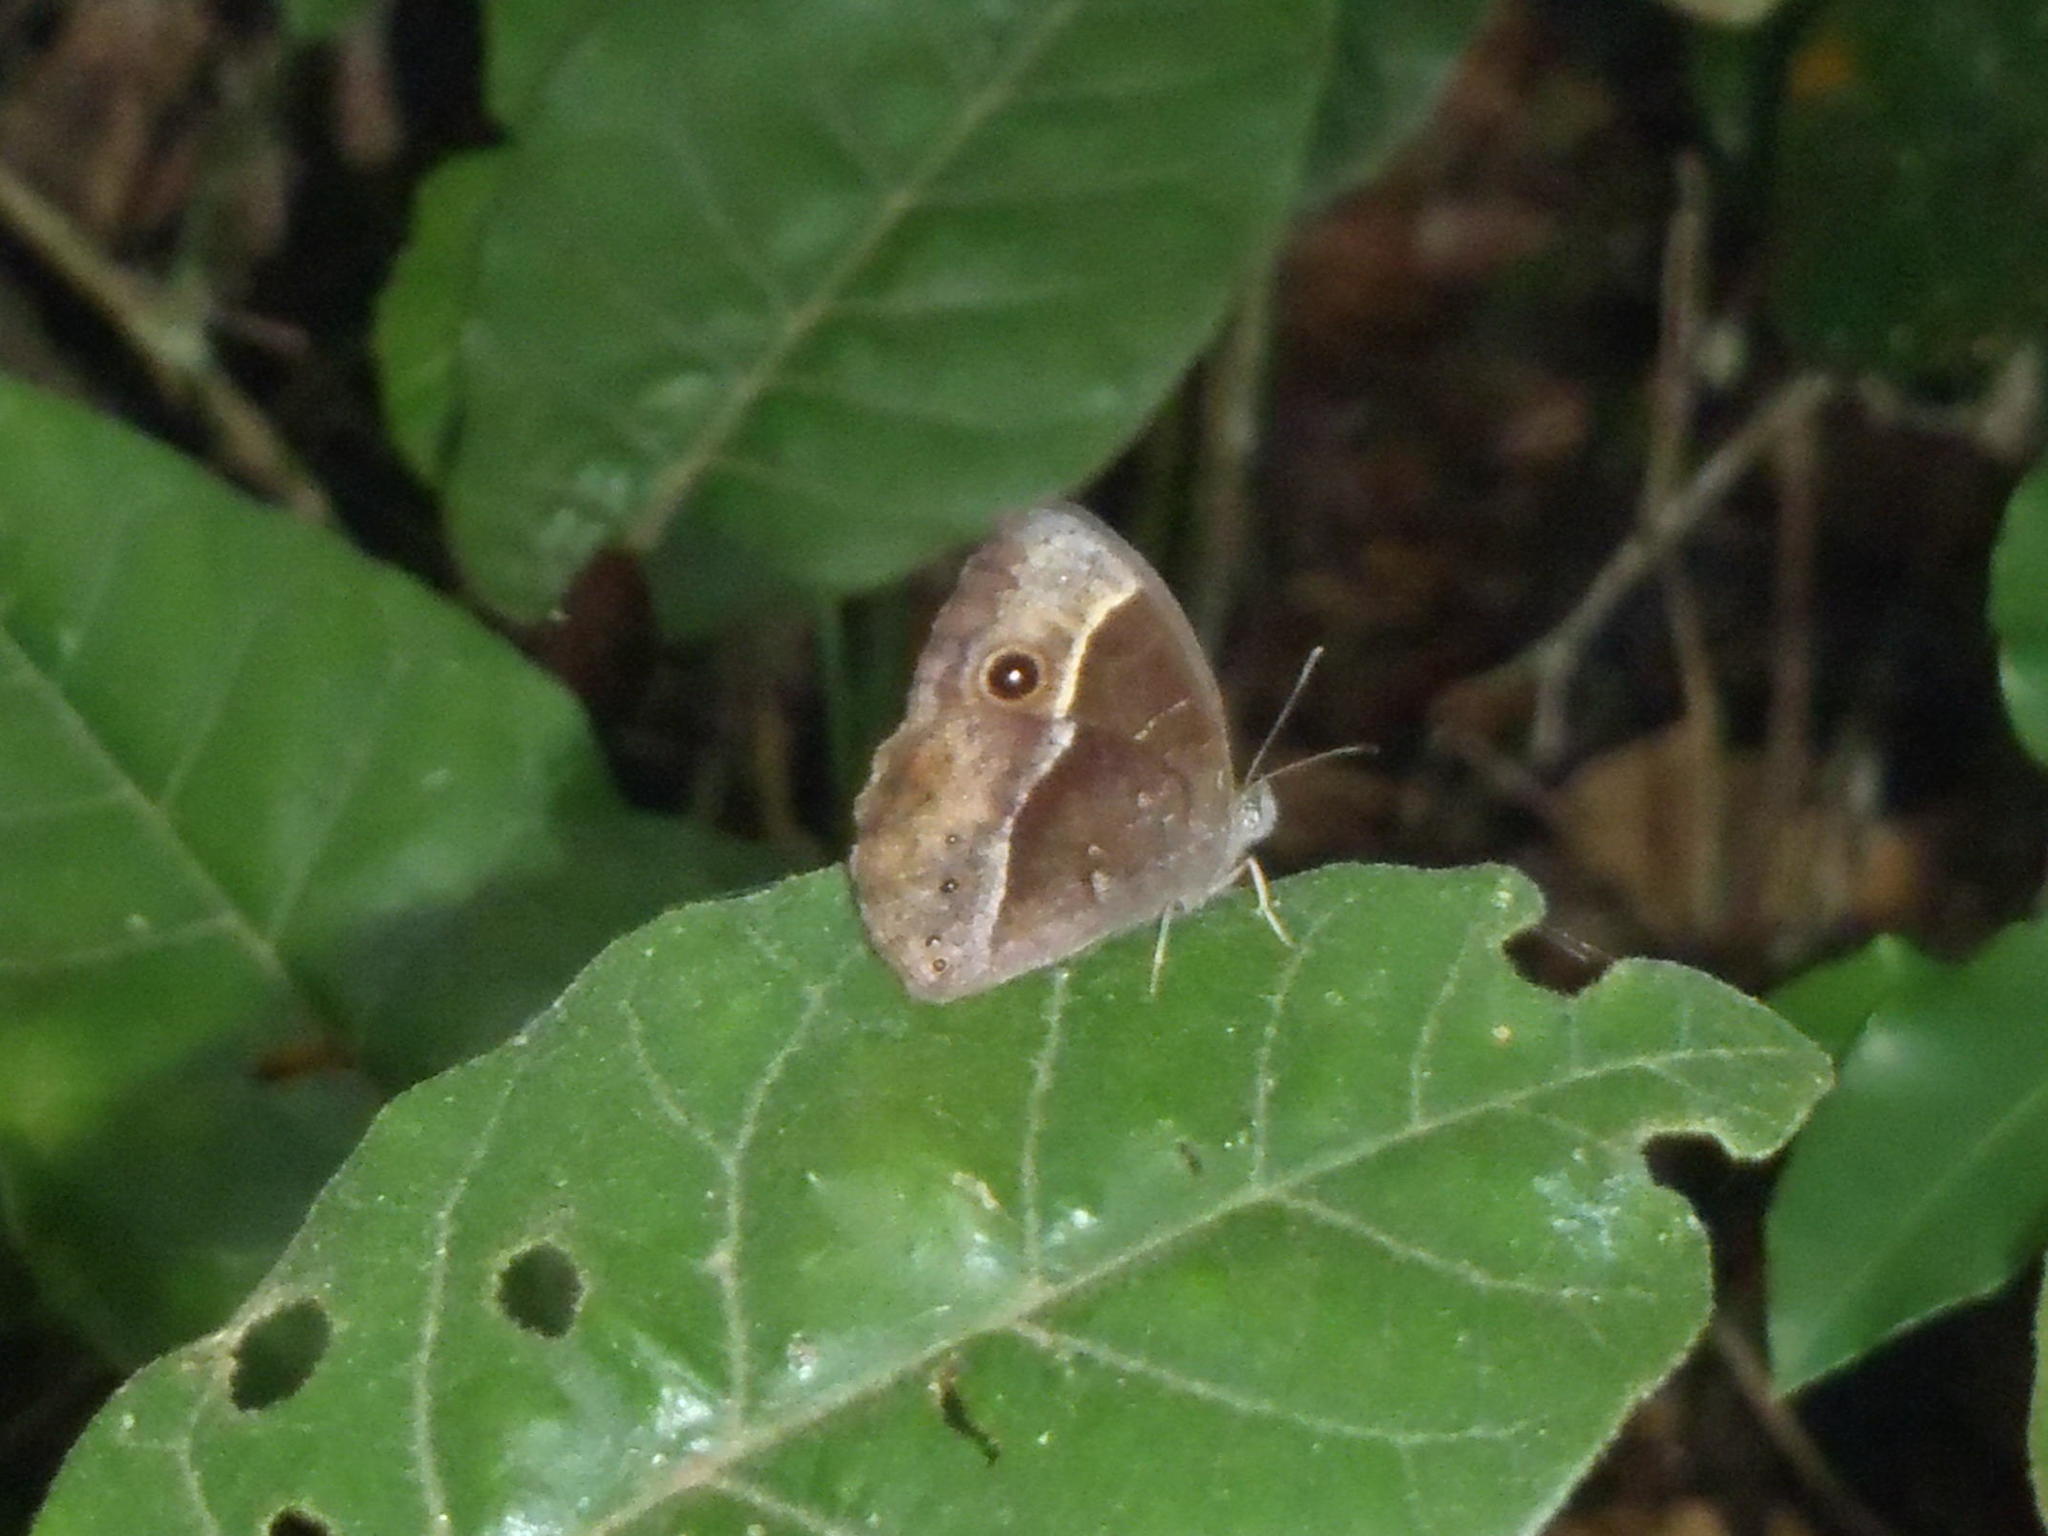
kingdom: Animalia
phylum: Arthropoda
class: Insecta
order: Lepidoptera
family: Nymphalidae
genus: Mycalesis
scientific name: Mycalesis rhacotis
